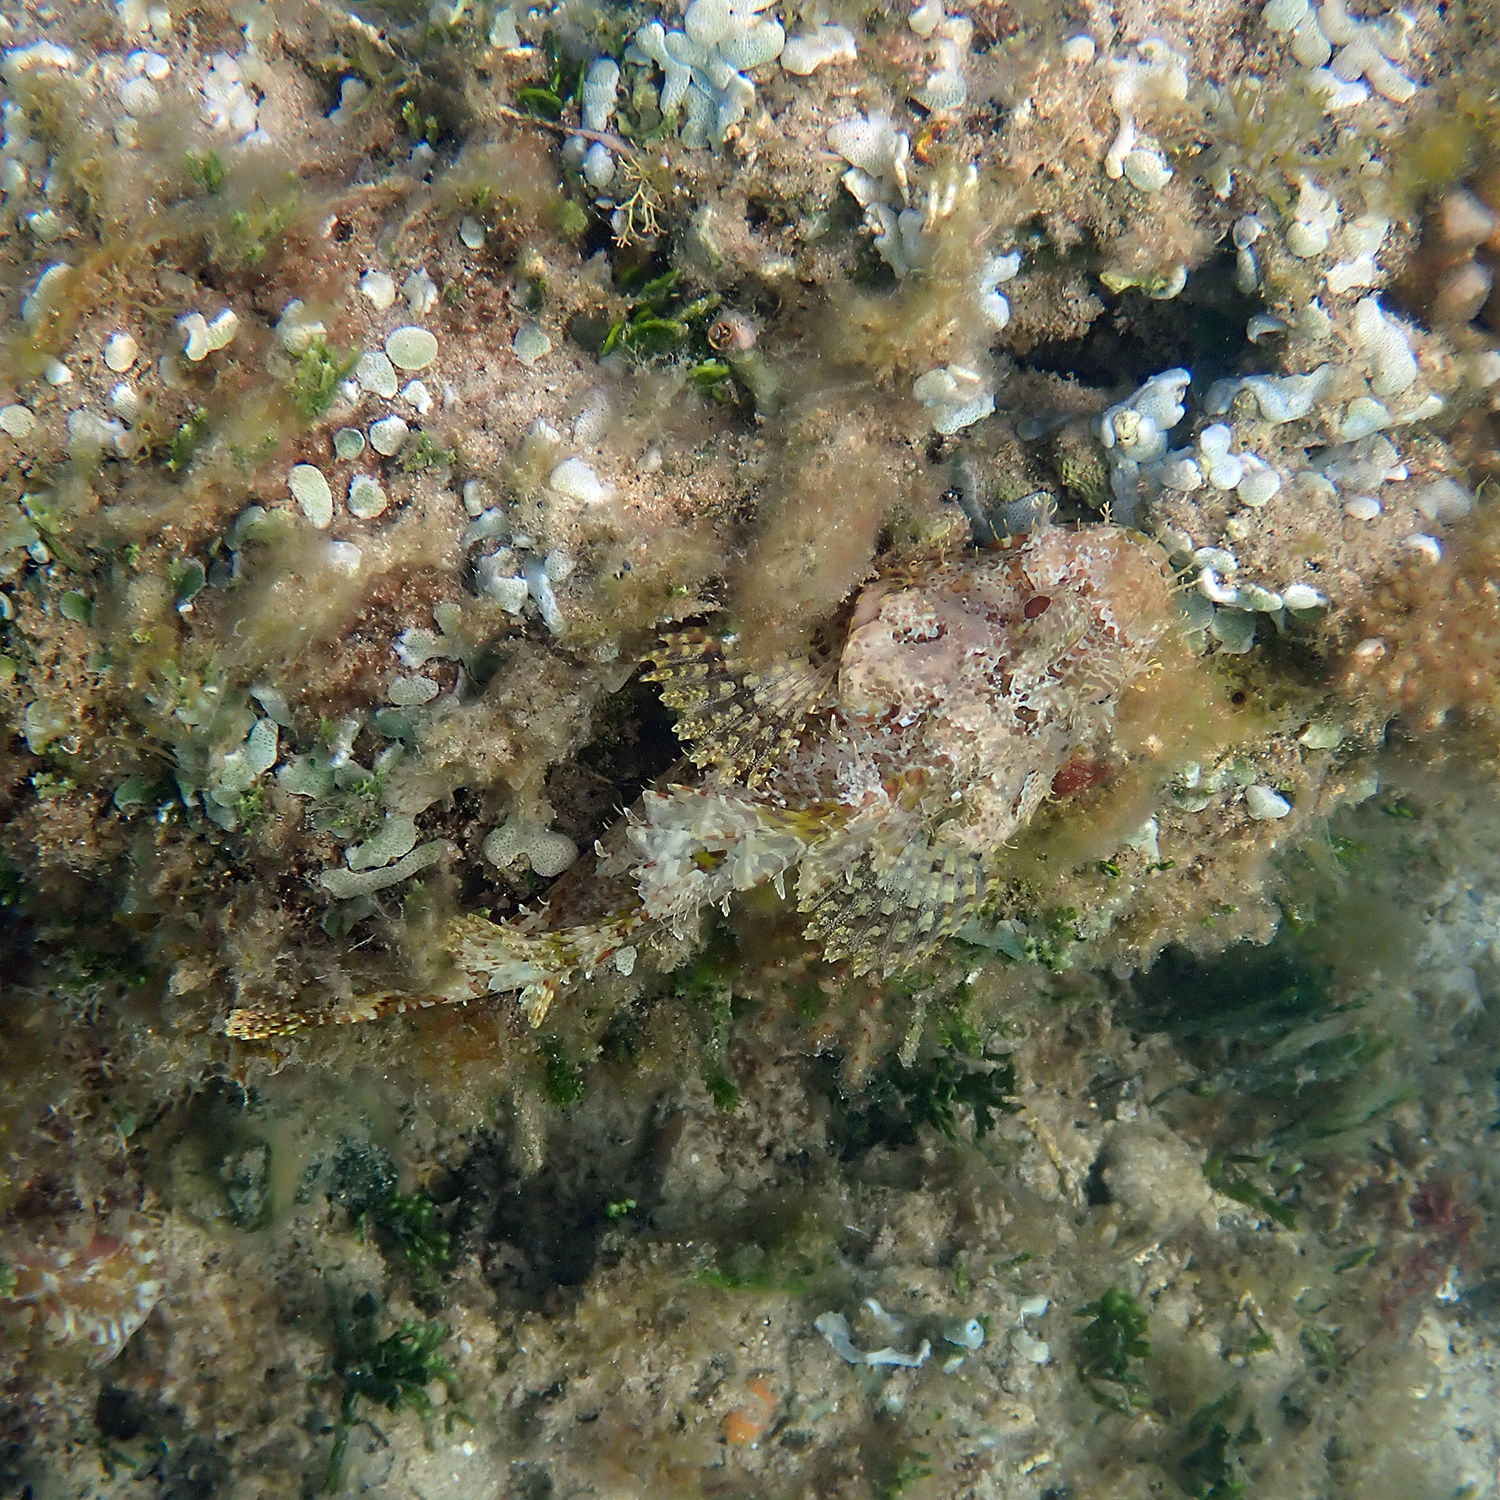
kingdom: Animalia
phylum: Chordata
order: Scorpaeniformes
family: Scorpaenidae
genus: Scorpaena
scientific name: Scorpaena cardinalis
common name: Cardinal scorpionfish
